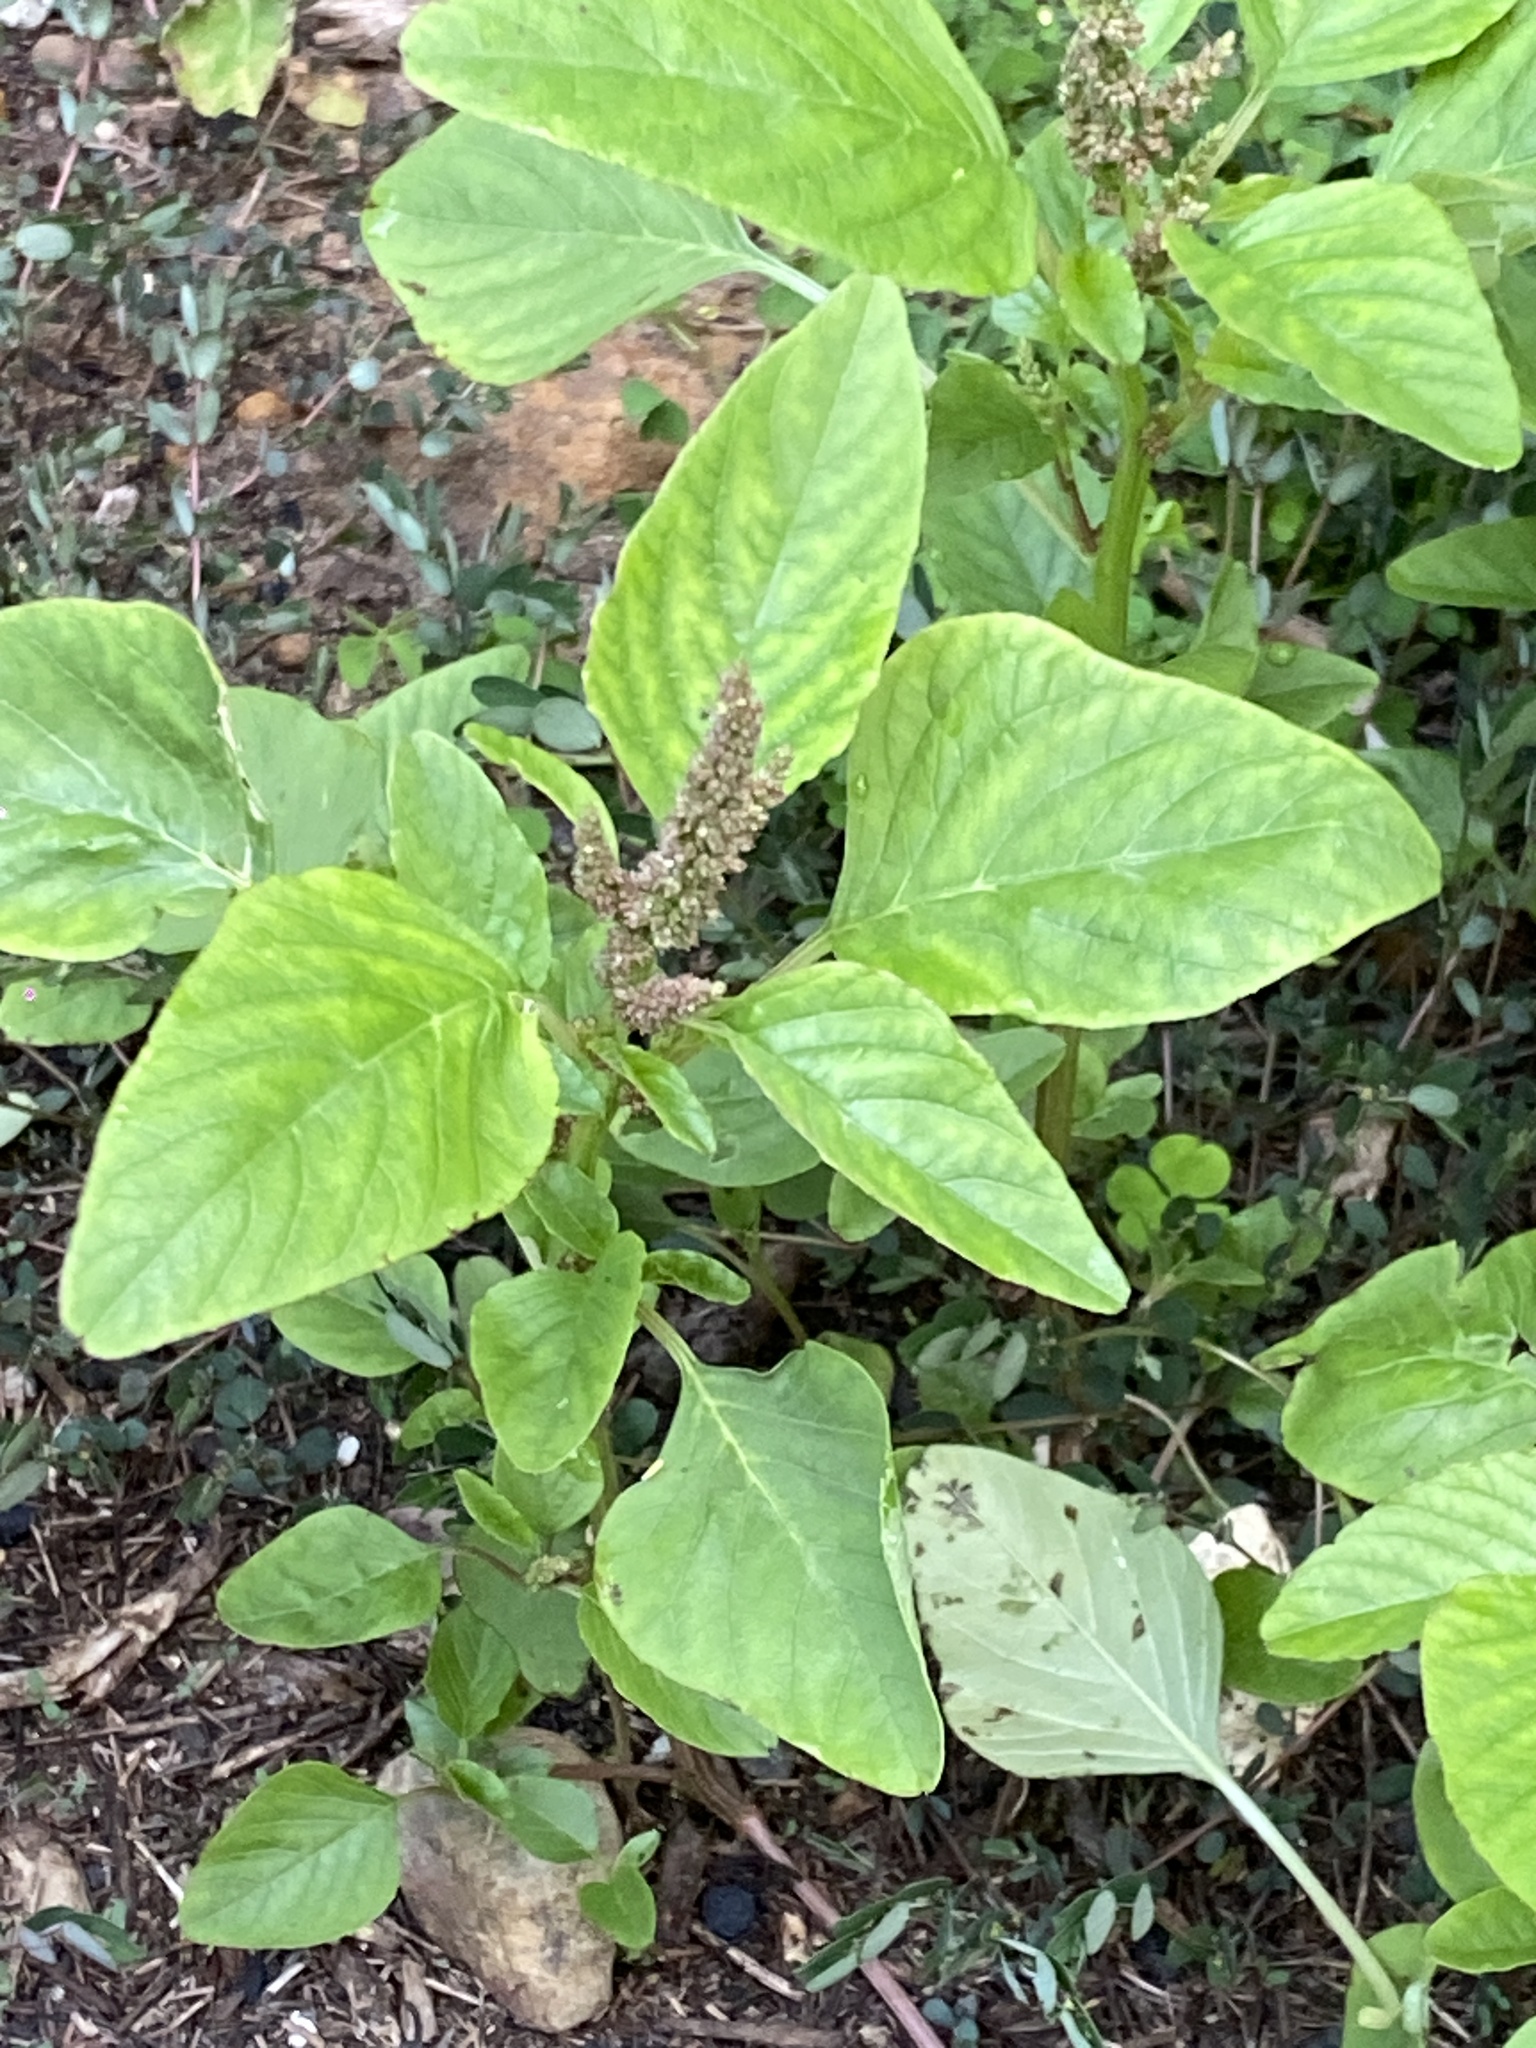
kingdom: Plantae
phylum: Tracheophyta
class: Magnoliopsida
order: Caryophyllales
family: Amaranthaceae
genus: Amaranthus
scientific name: Amaranthus viridis
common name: Slender amaranth
